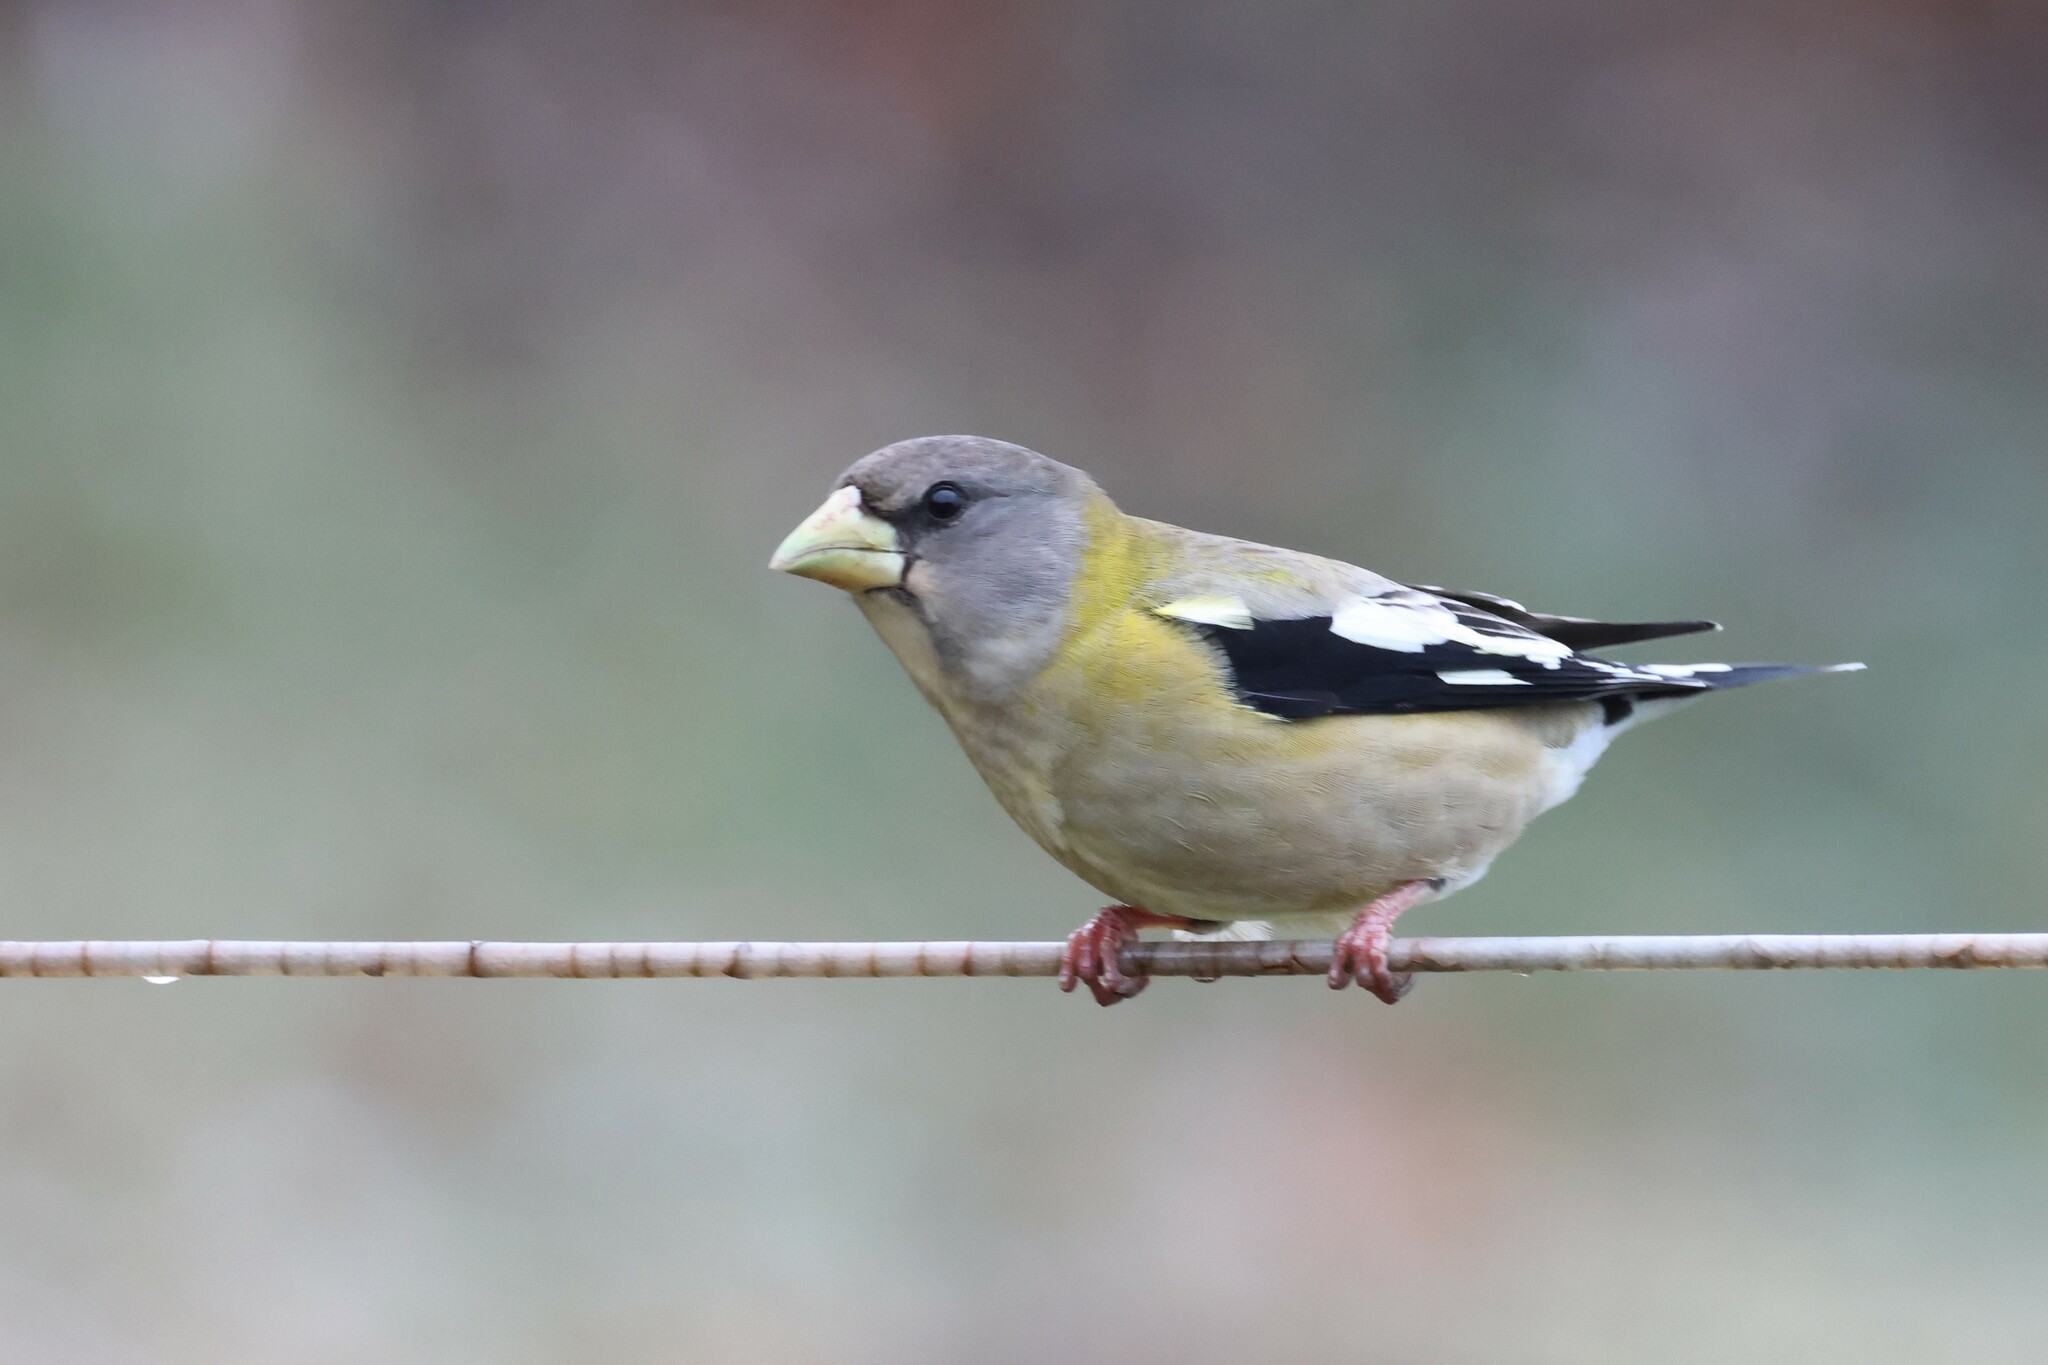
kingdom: Animalia
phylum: Chordata
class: Aves
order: Passeriformes
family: Fringillidae
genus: Hesperiphona
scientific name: Hesperiphona vespertina
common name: Evening grosbeak
